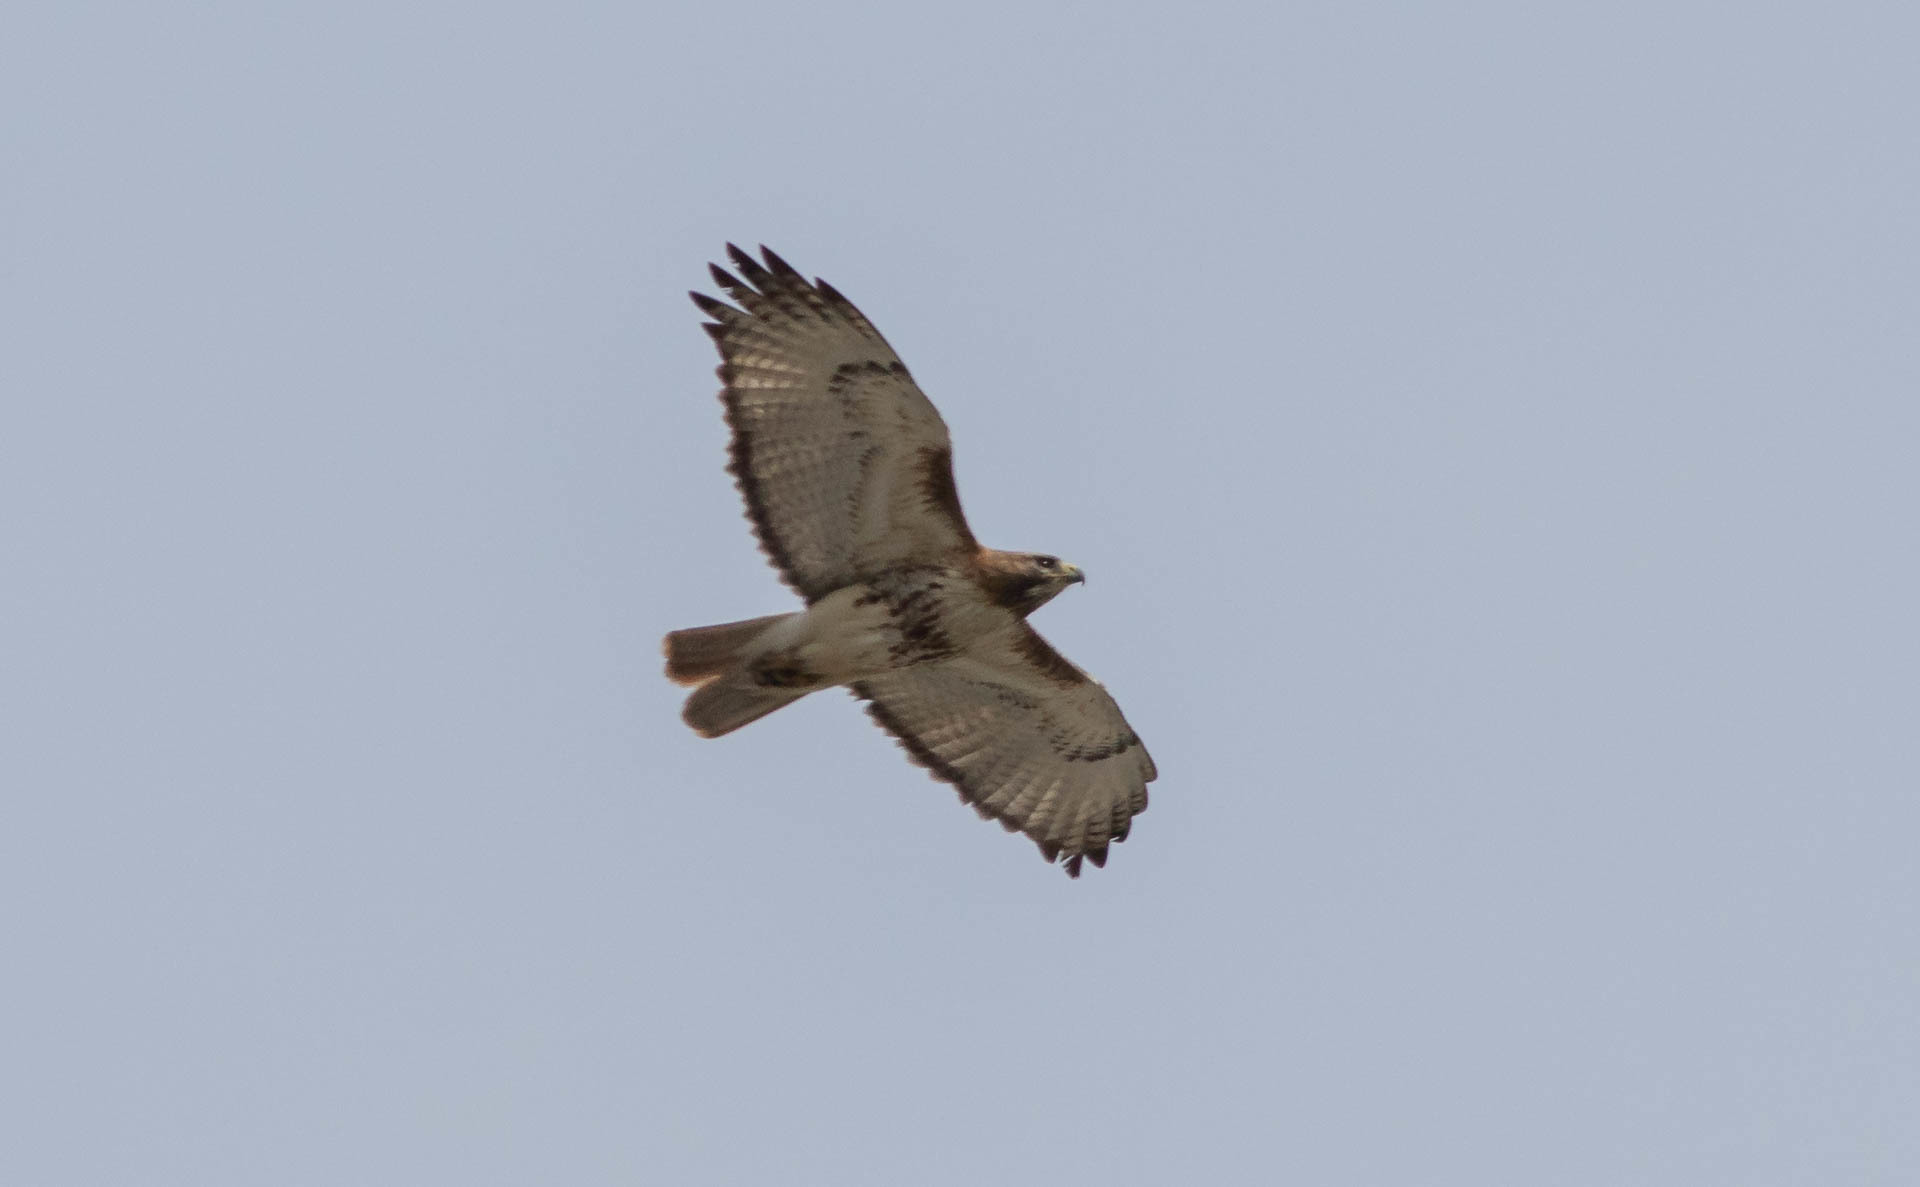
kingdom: Animalia
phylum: Chordata
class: Aves
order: Accipitriformes
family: Accipitridae
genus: Buteo
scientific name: Buteo jamaicensis
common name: Red-tailed hawk
